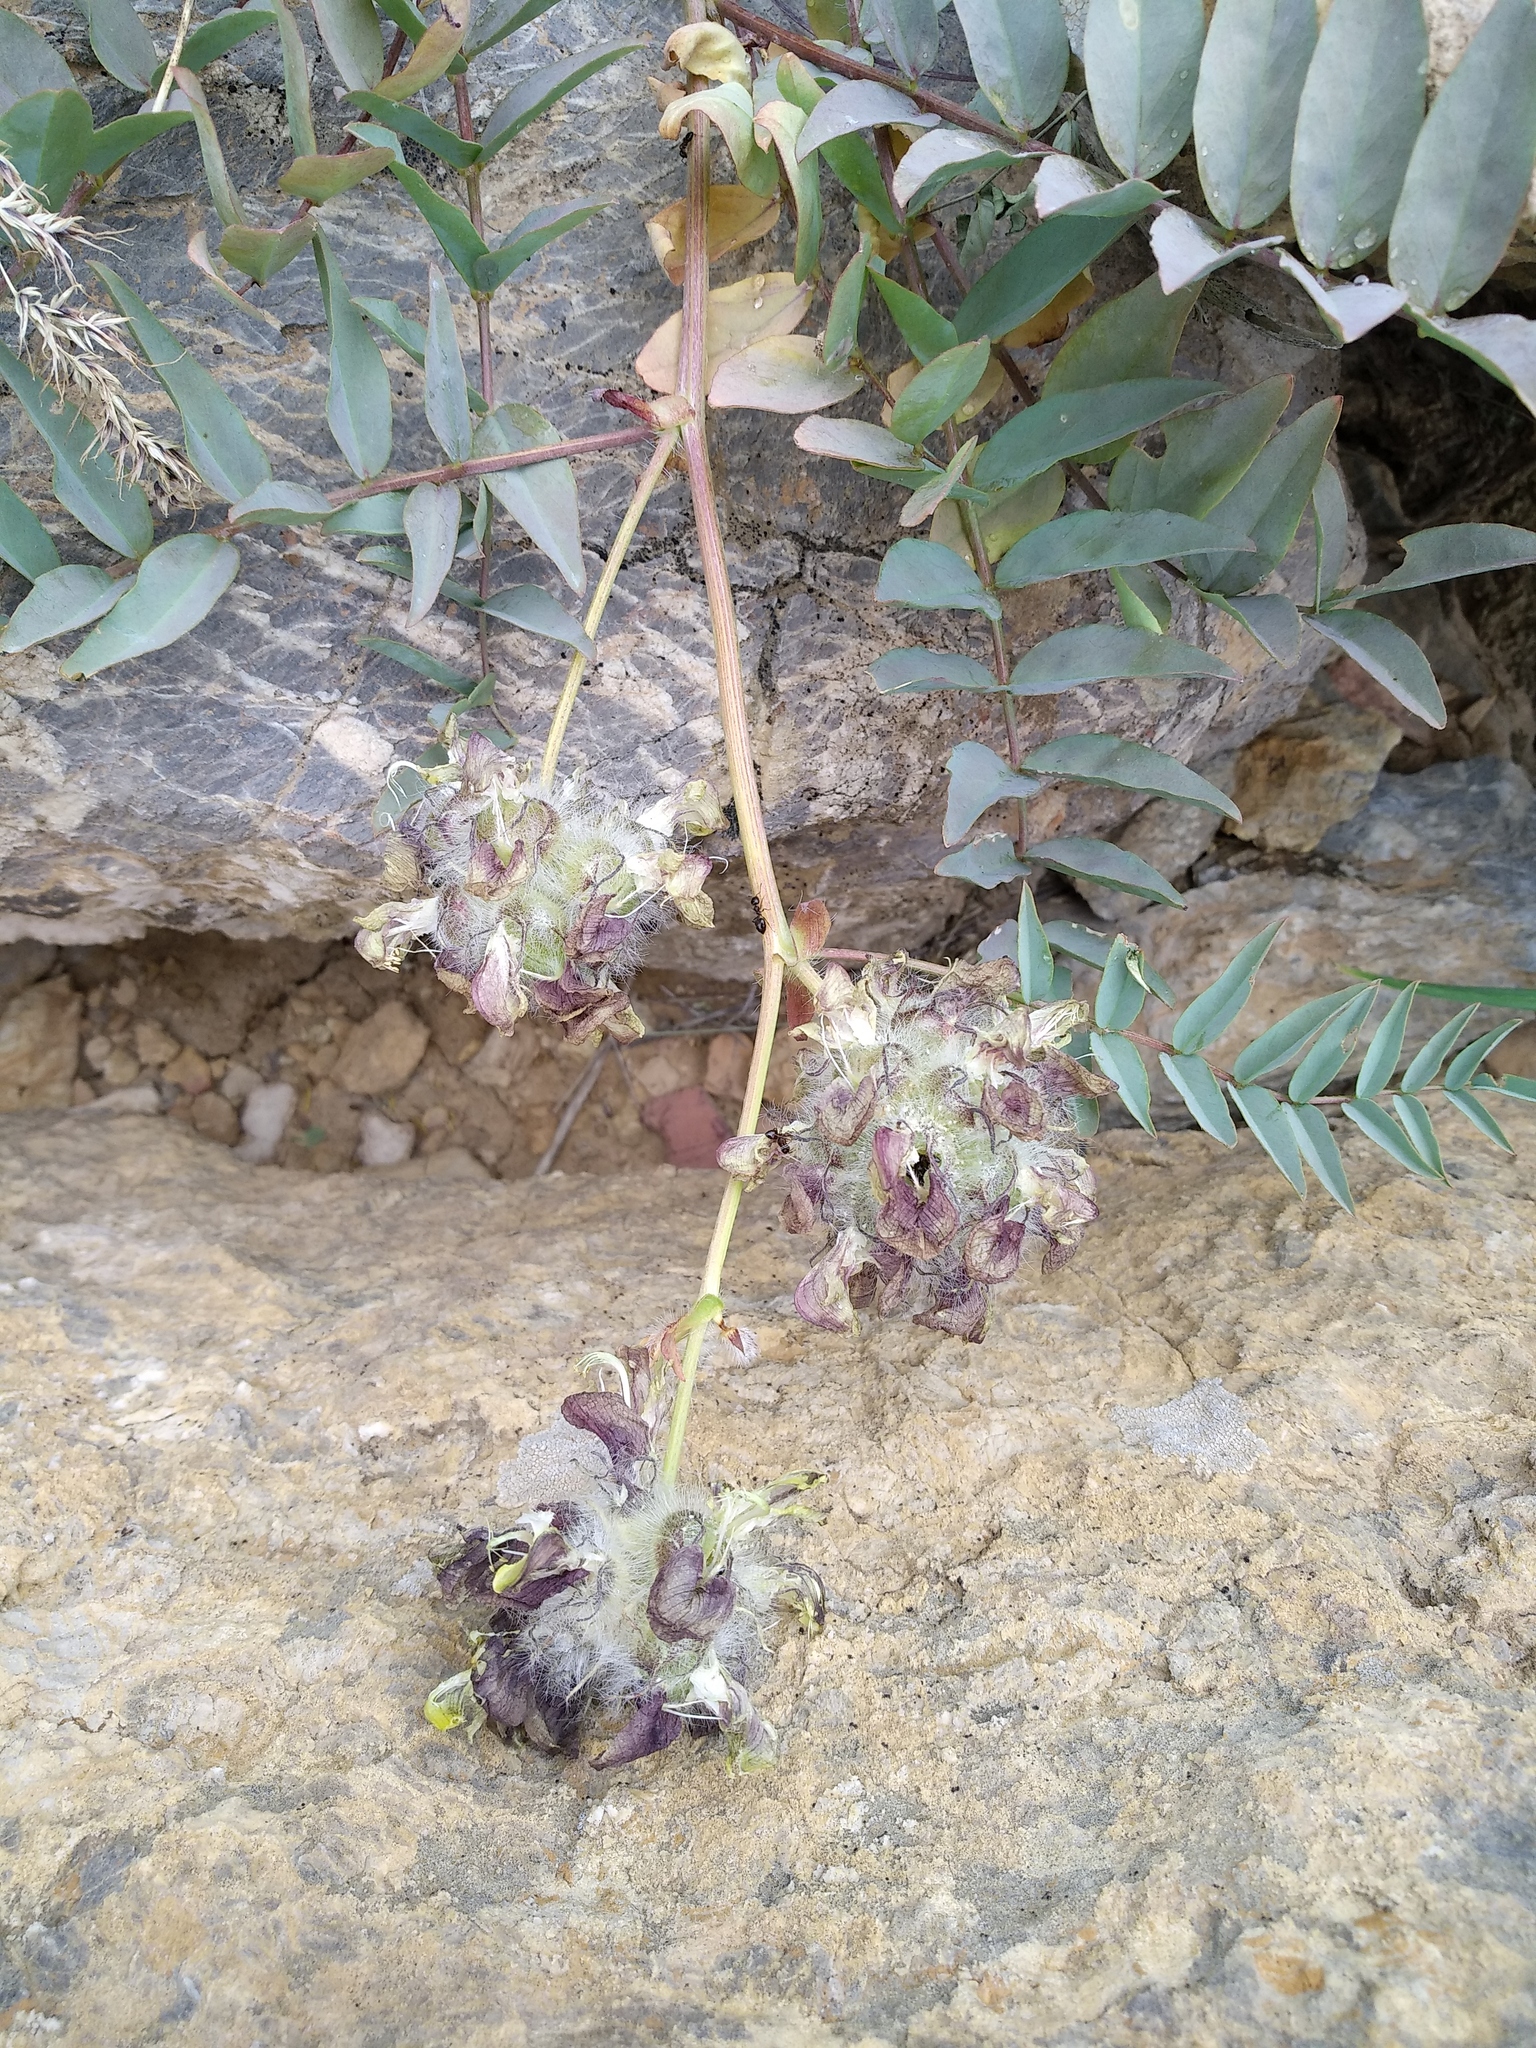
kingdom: Plantae
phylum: Tracheophyta
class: Magnoliopsida
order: Fabales
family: Fabaceae
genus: Astragalus
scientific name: Astragalus macrocephalus
